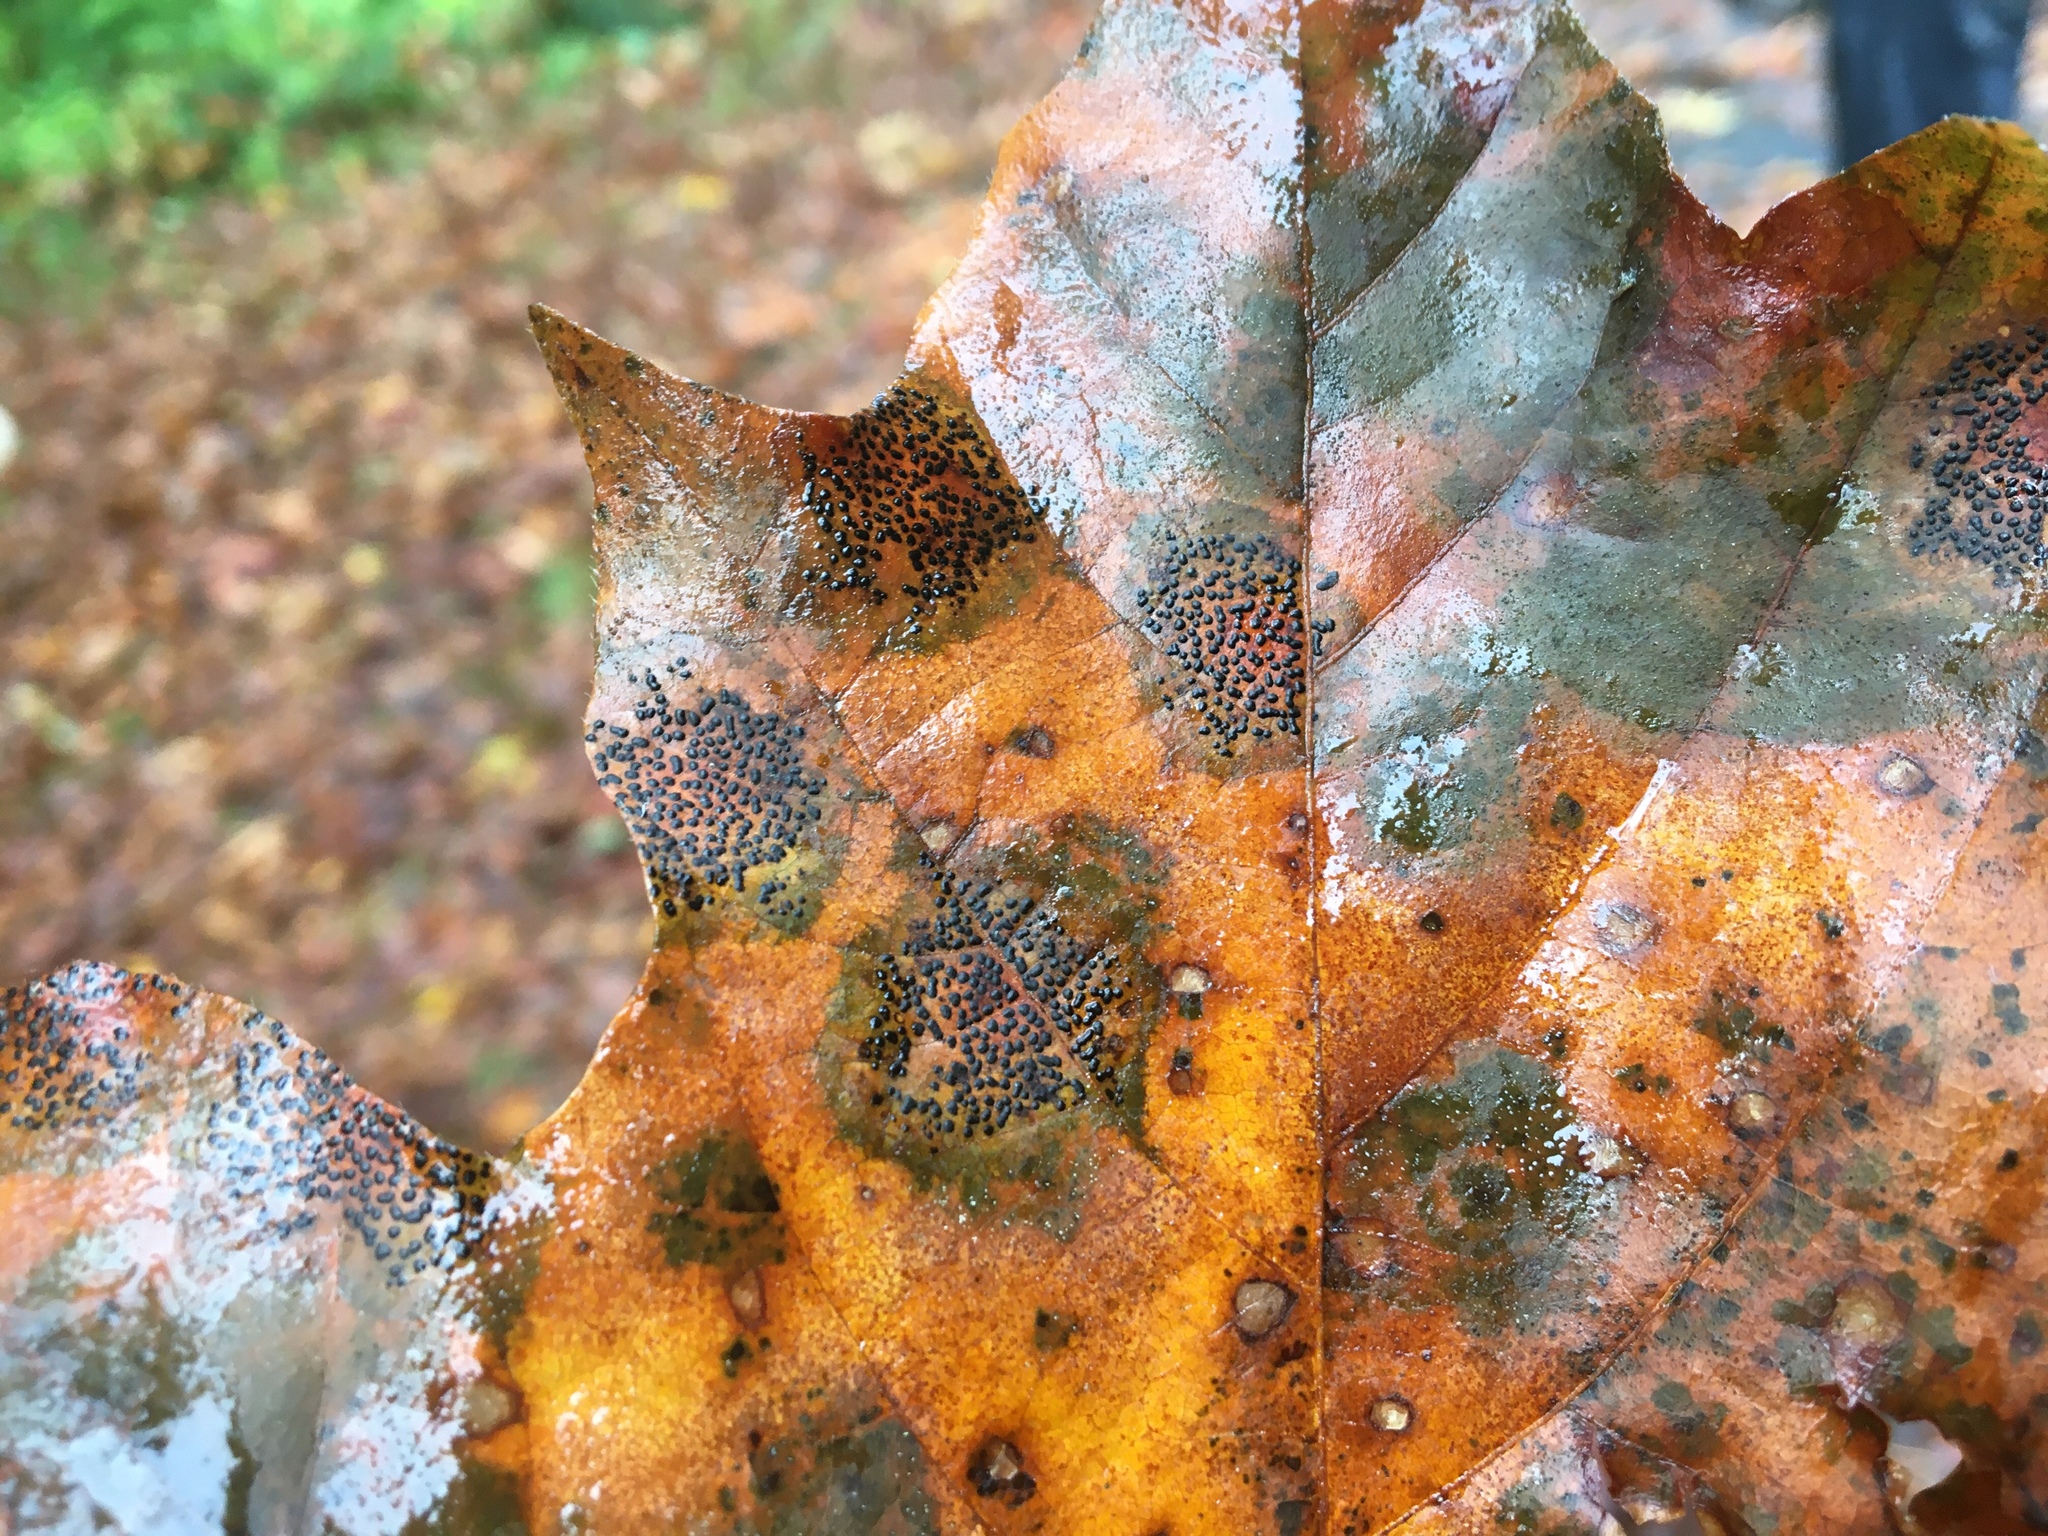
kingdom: Fungi
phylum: Ascomycota
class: Leotiomycetes
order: Rhytismatales
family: Rhytismataceae
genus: Rhytisma
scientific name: Rhytisma punctatum
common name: Speckled tar spot
